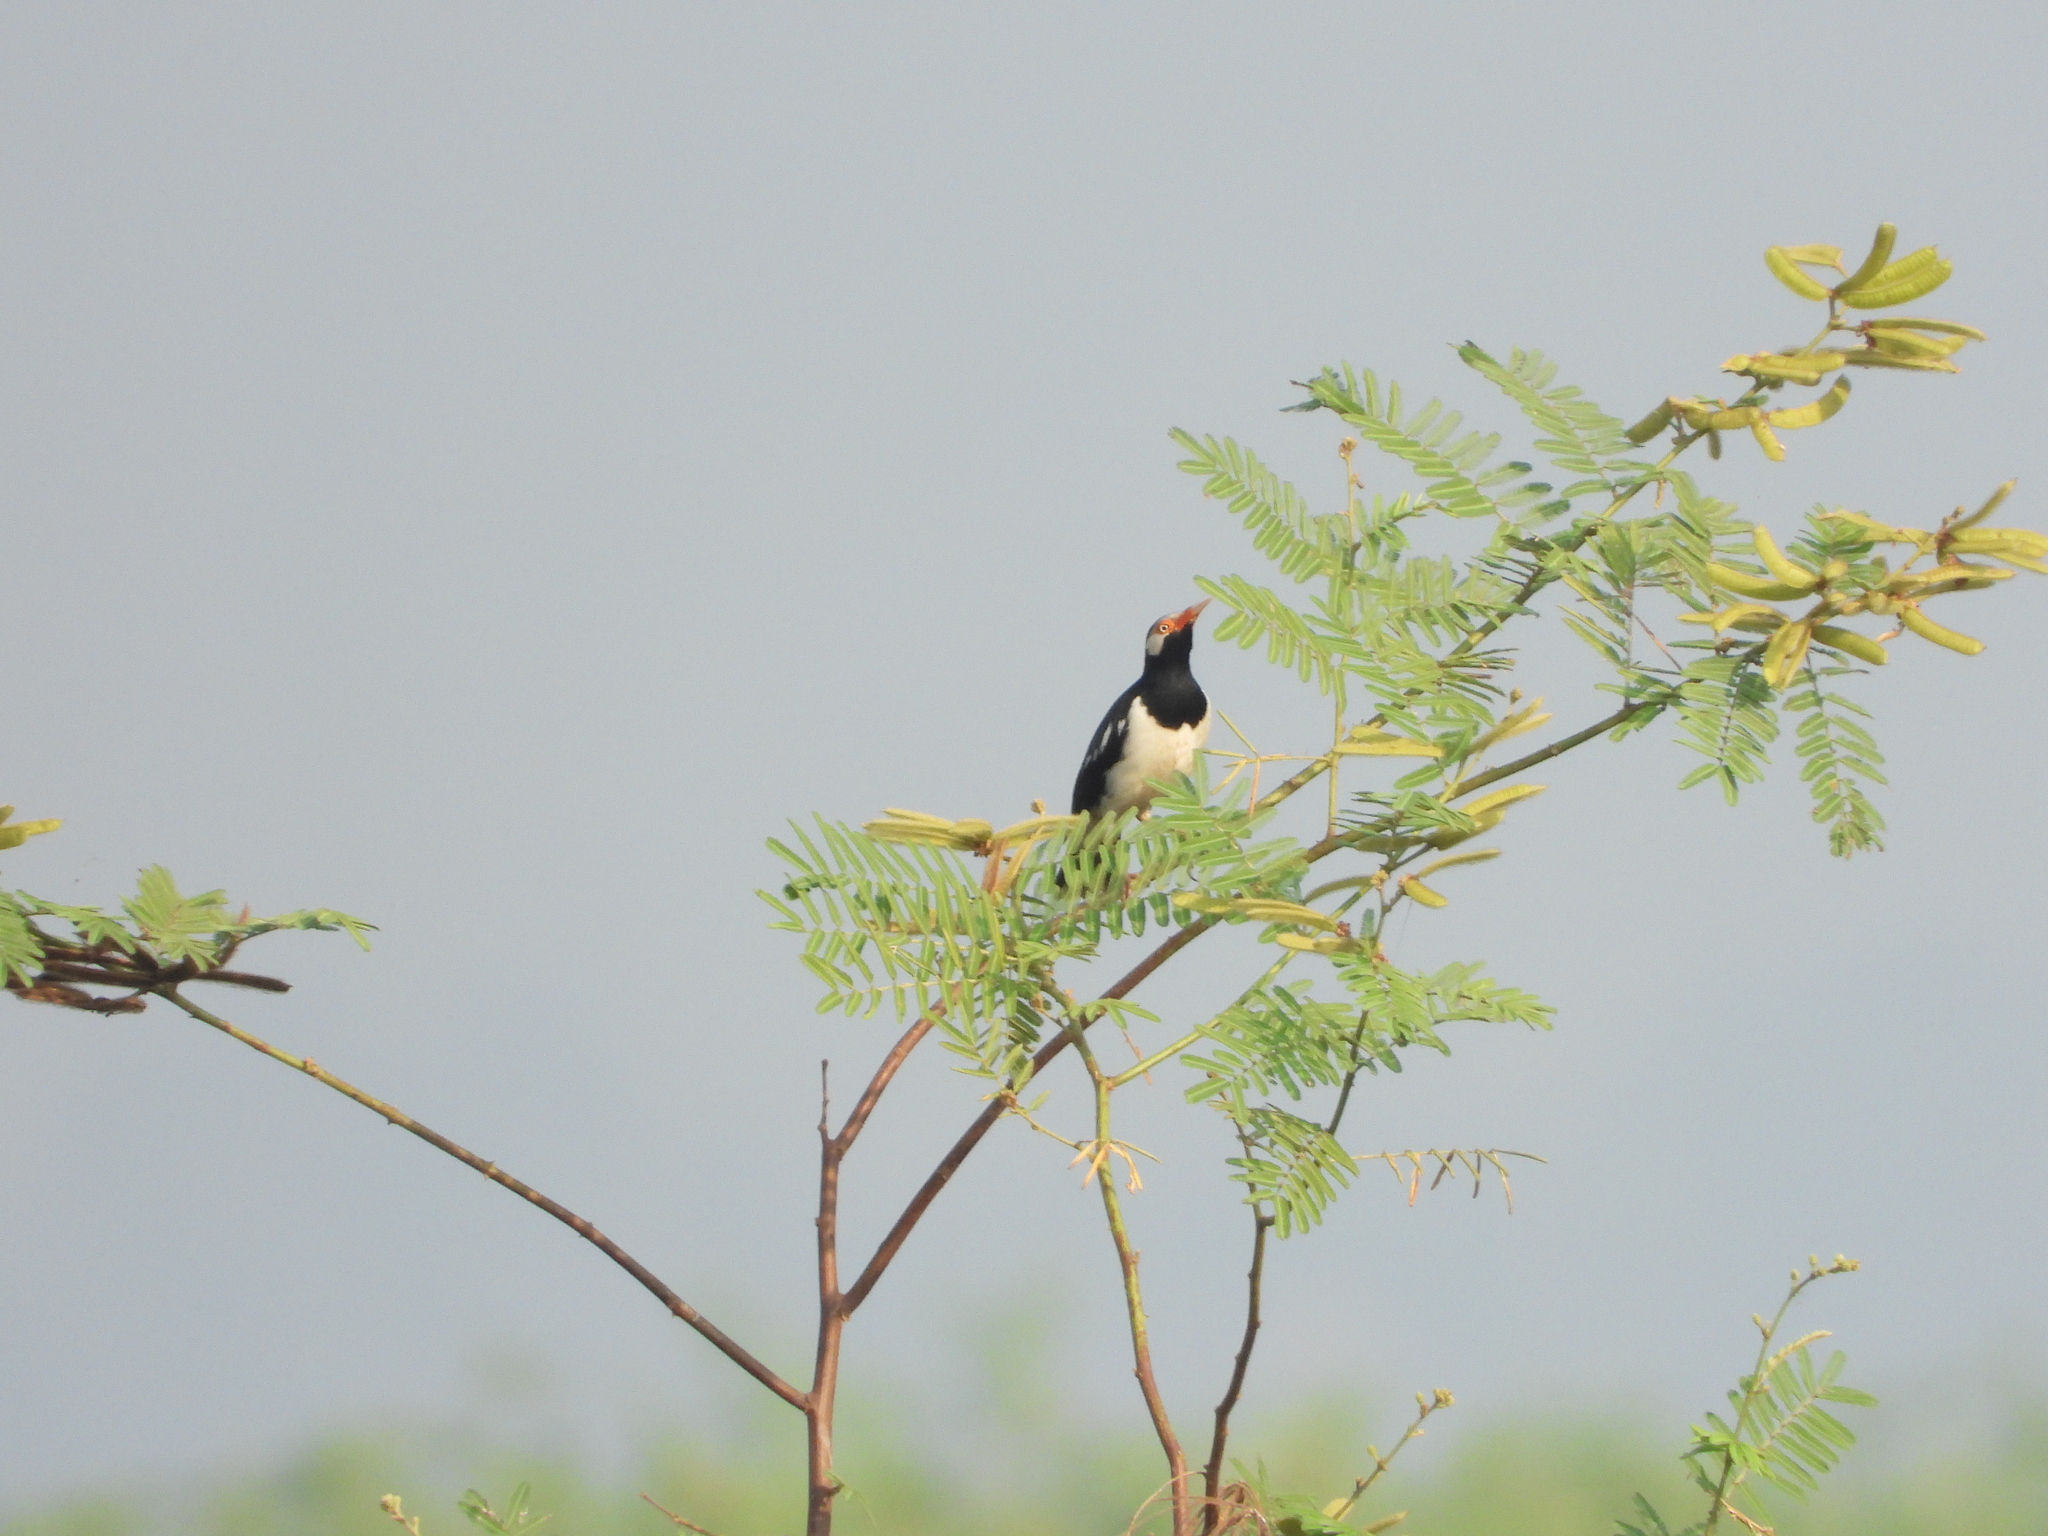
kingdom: Animalia
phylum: Chordata
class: Aves
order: Passeriformes
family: Sturnidae
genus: Gracupica
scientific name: Gracupica contra
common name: Pied myna
